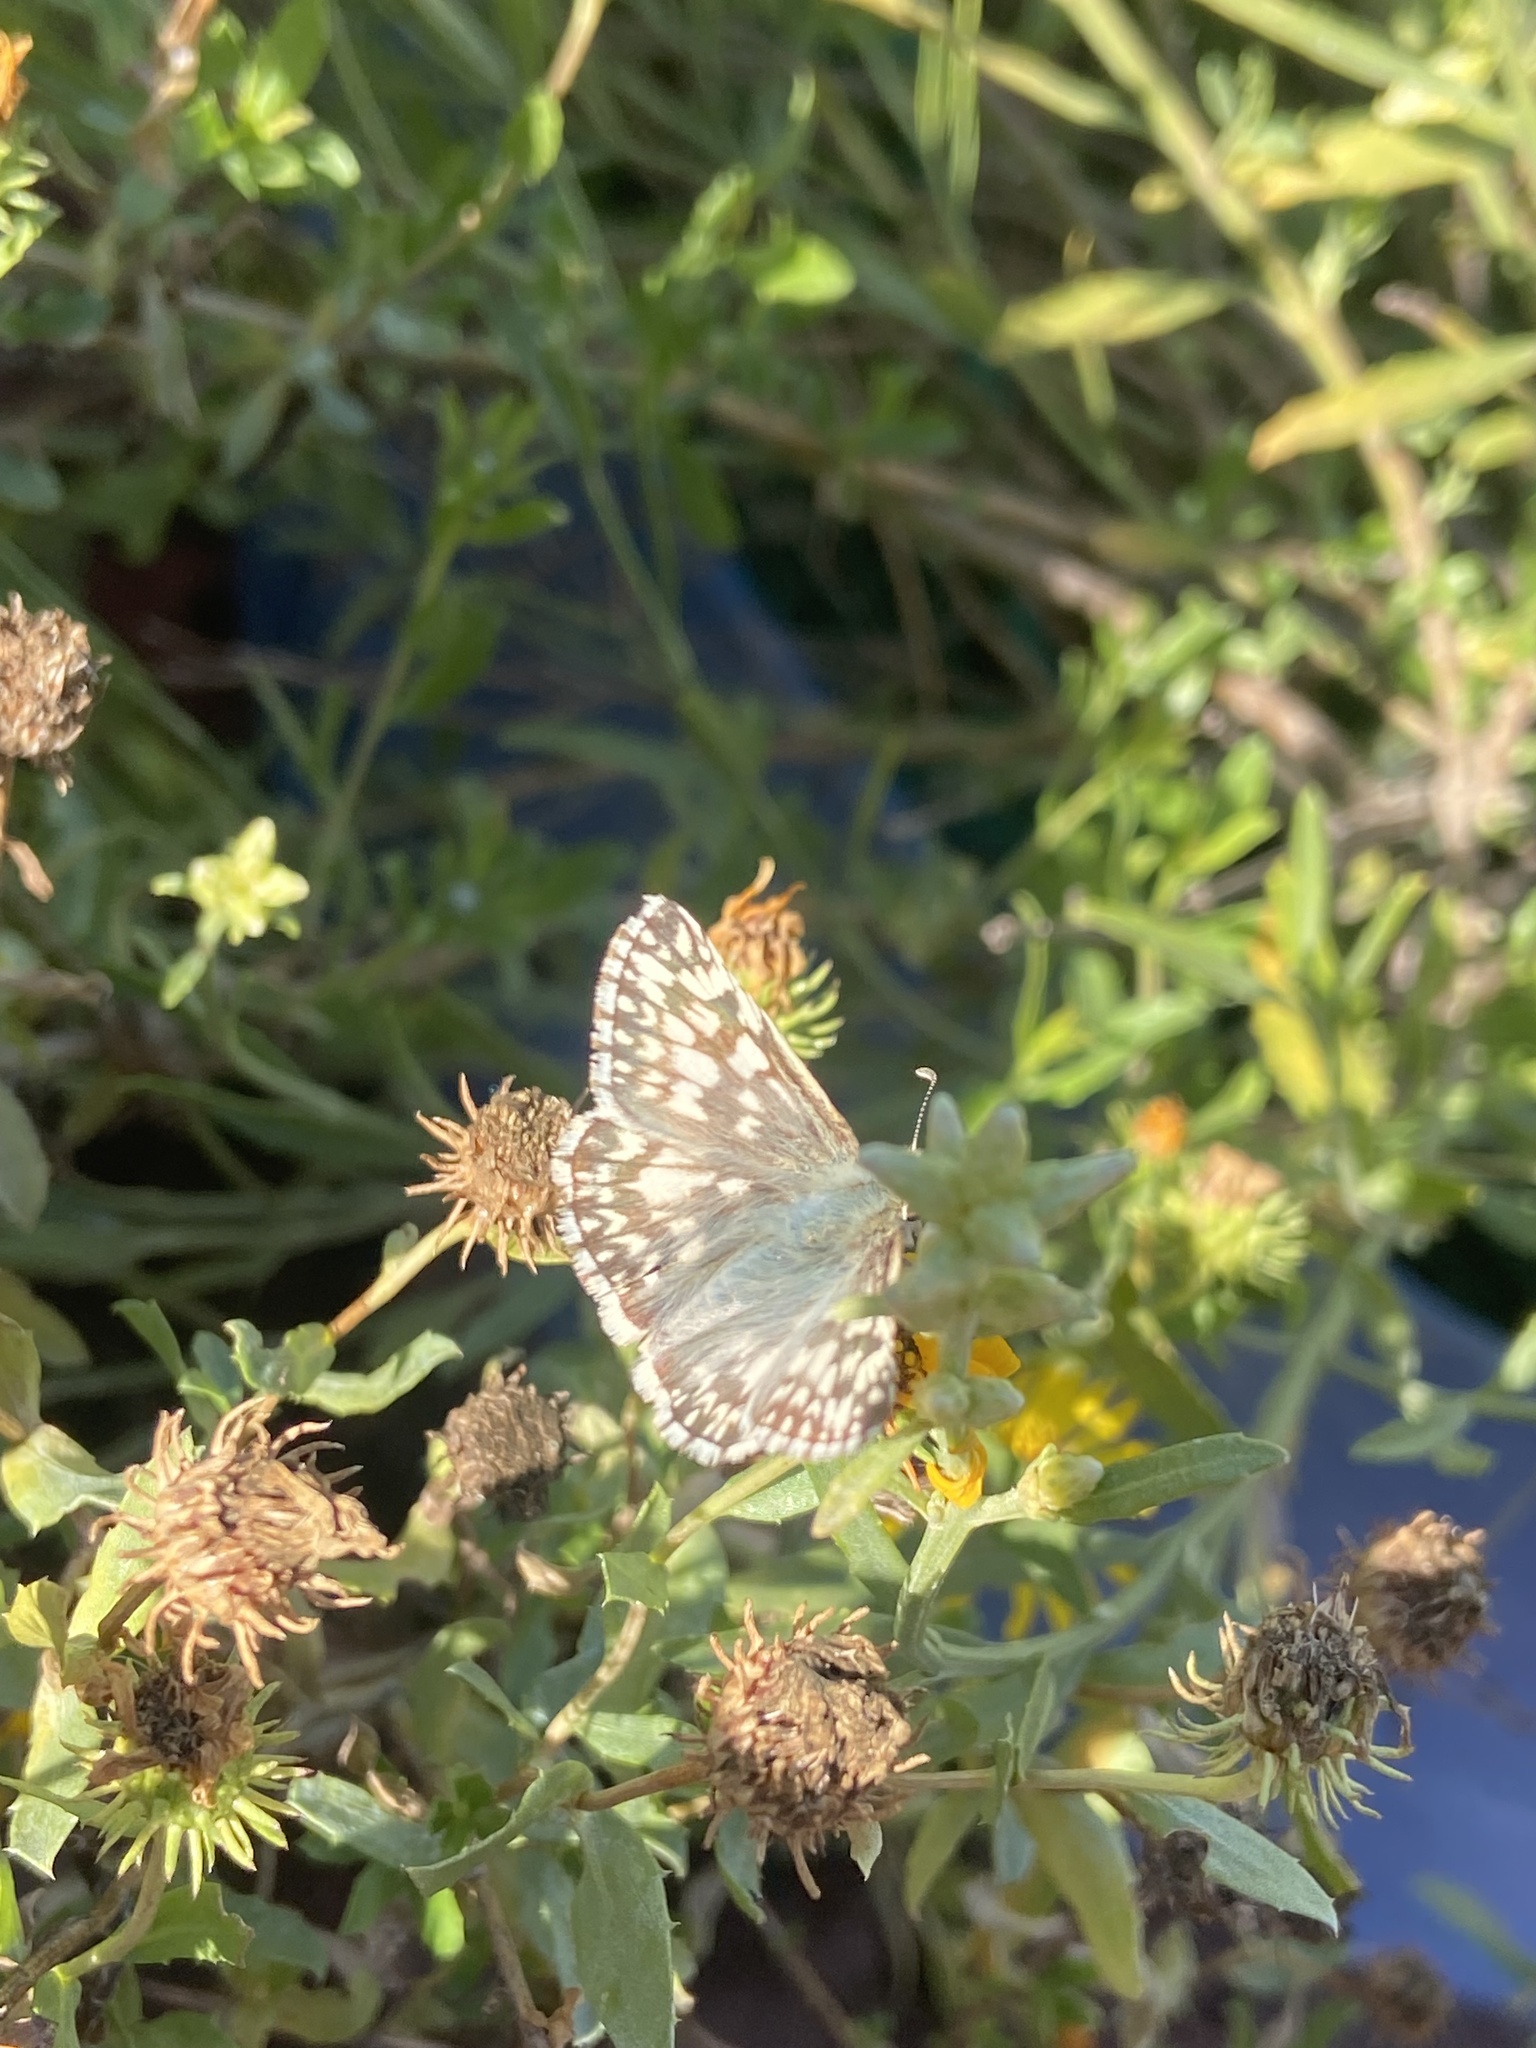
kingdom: Animalia
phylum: Arthropoda
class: Insecta
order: Lepidoptera
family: Hesperiidae
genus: Heliopetes
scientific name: Heliopetes americanus
